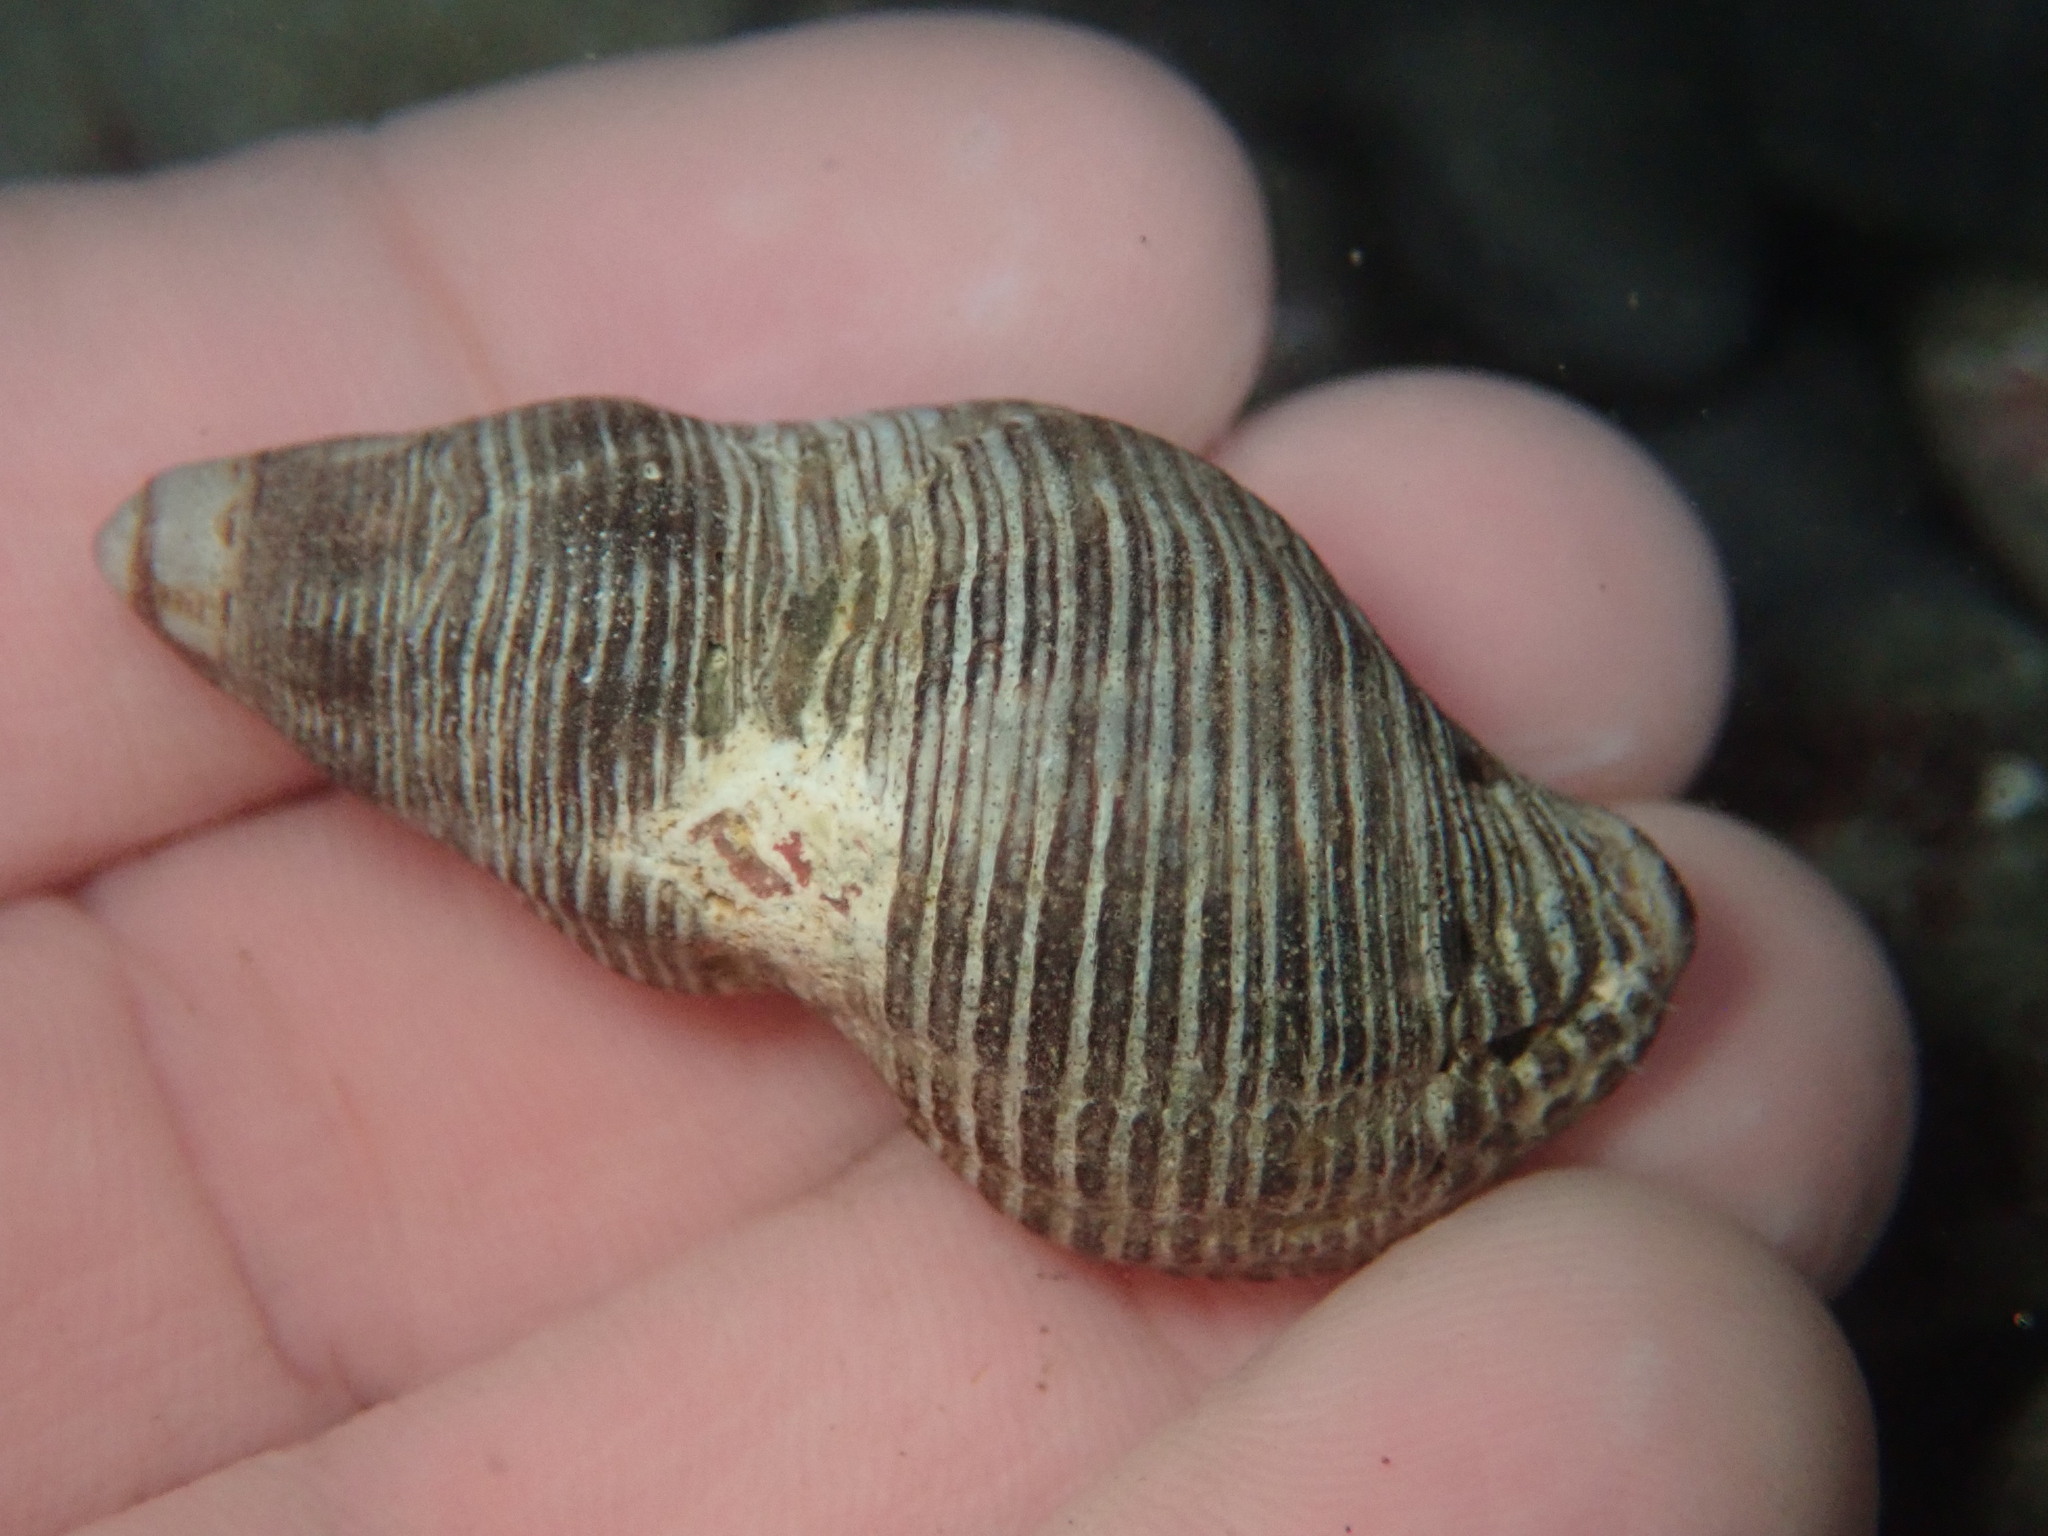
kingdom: Animalia
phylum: Mollusca
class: Gastropoda
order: Neogastropoda
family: Tudiclidae
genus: Lirabuccinum
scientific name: Lirabuccinum dirum
